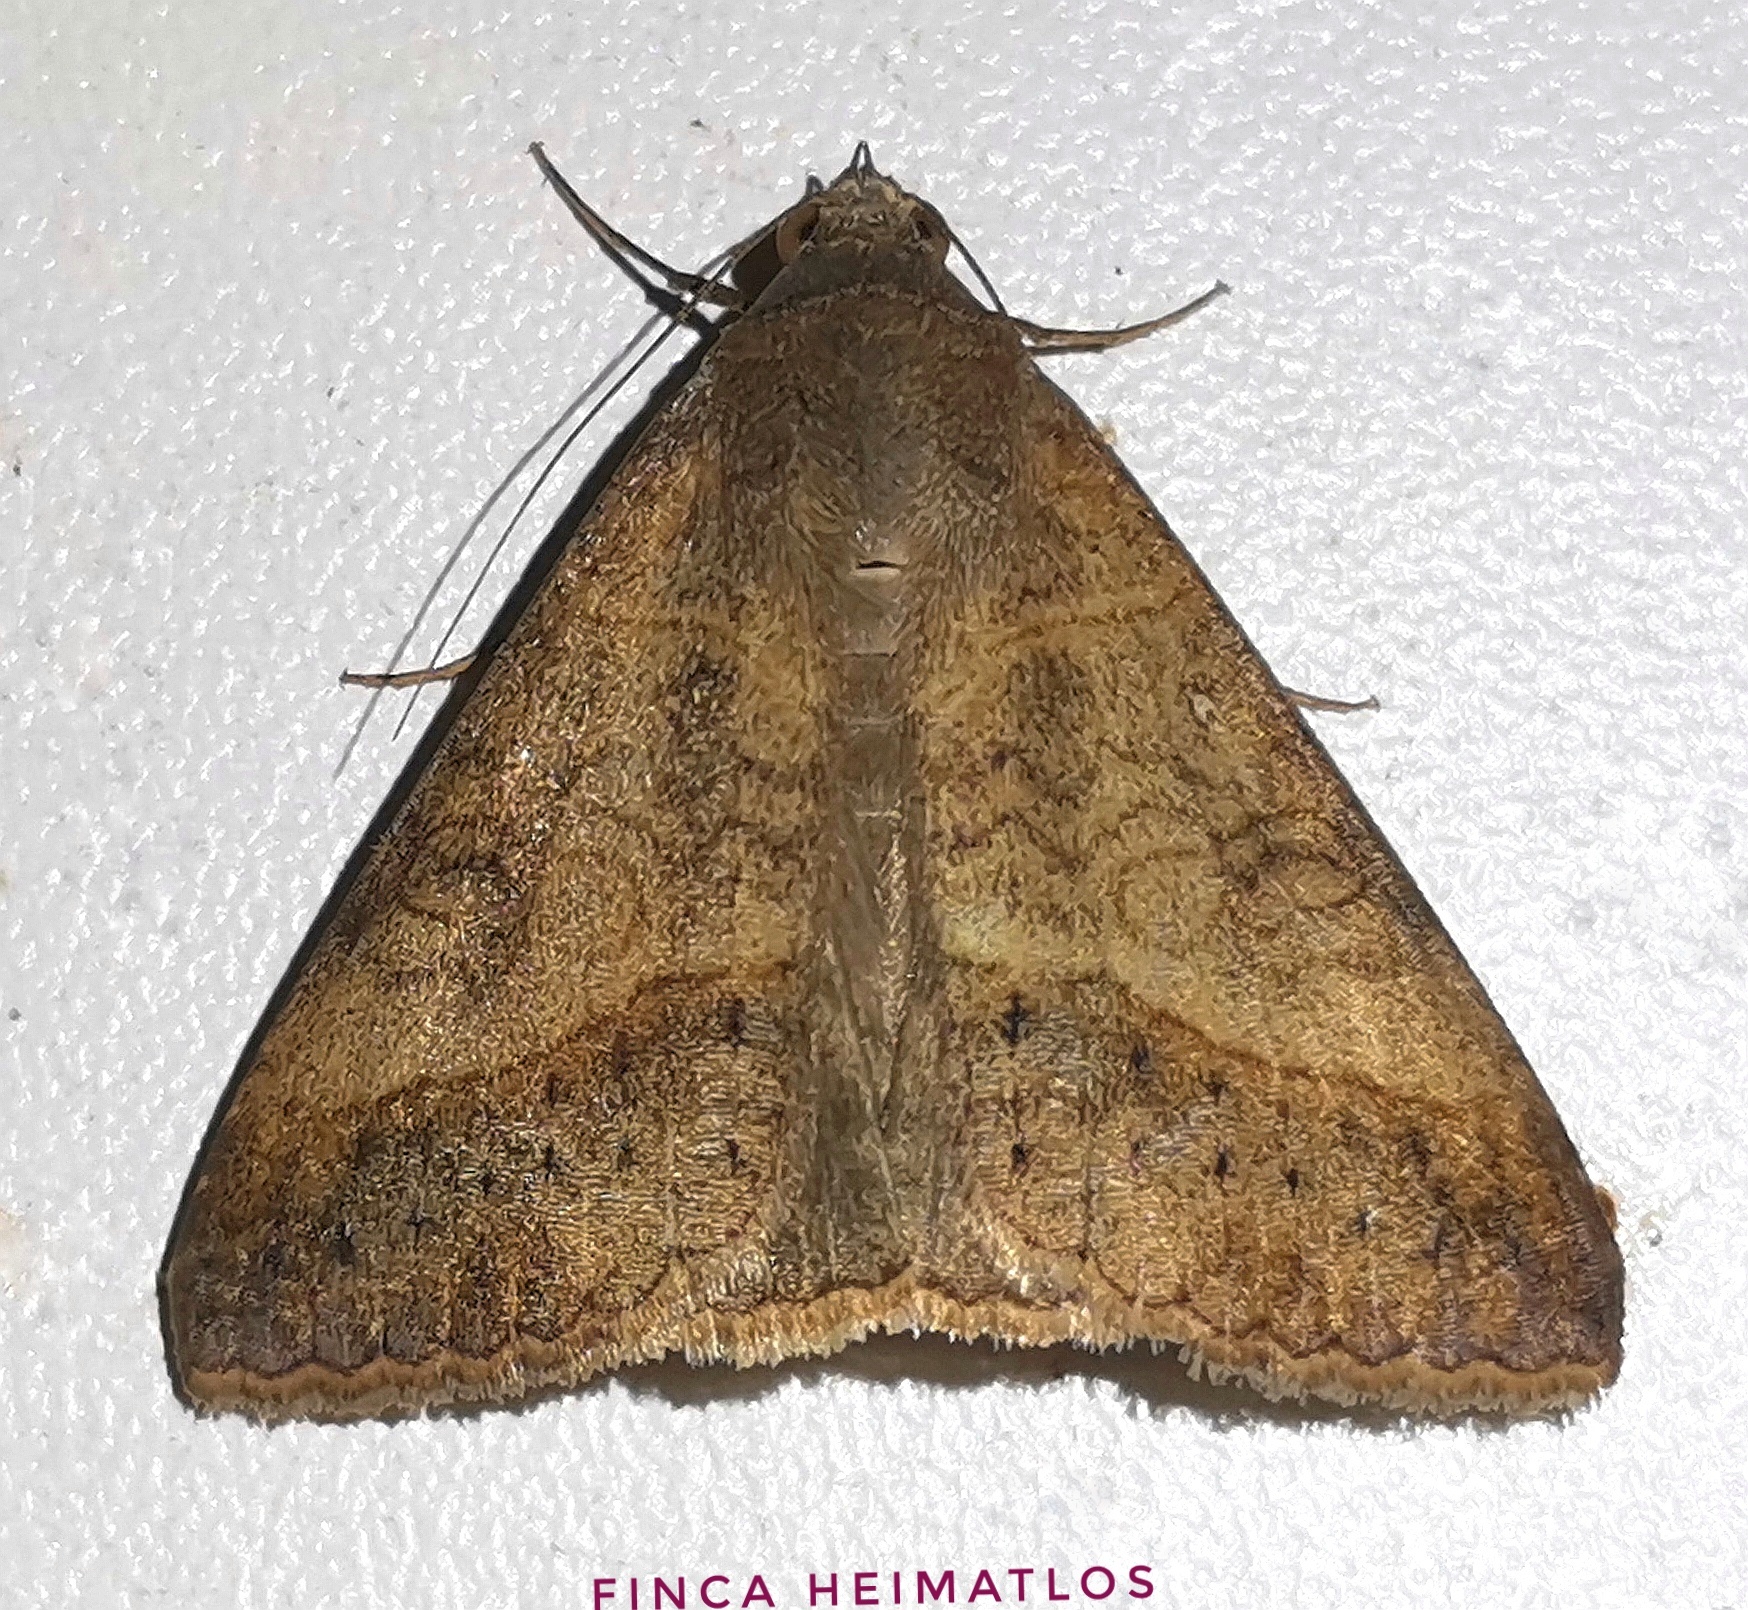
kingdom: Animalia
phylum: Arthropoda
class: Insecta
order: Lepidoptera
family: Erebidae
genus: Mocis
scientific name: Mocis latipes
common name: Striped grass looper
